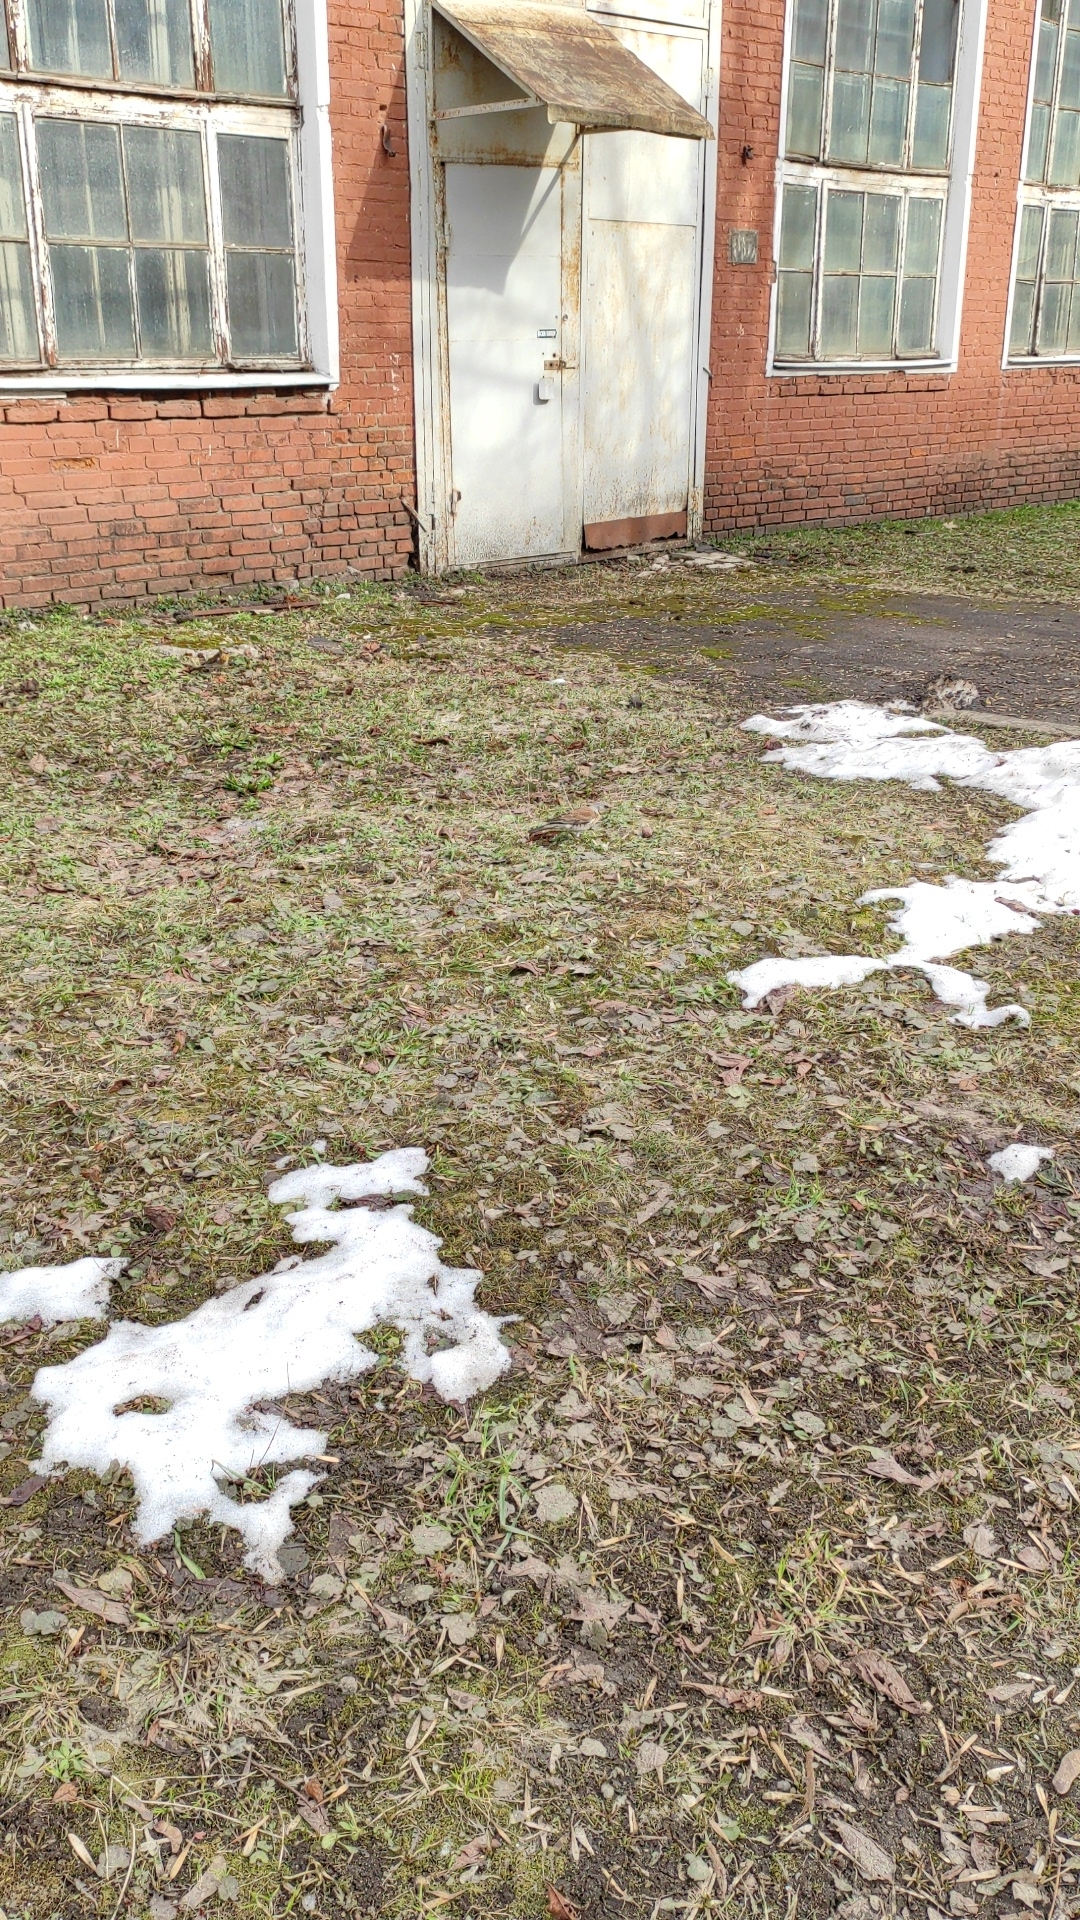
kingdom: Animalia
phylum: Chordata
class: Aves
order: Passeriformes
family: Turdidae
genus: Turdus
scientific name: Turdus pilaris
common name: Fieldfare
